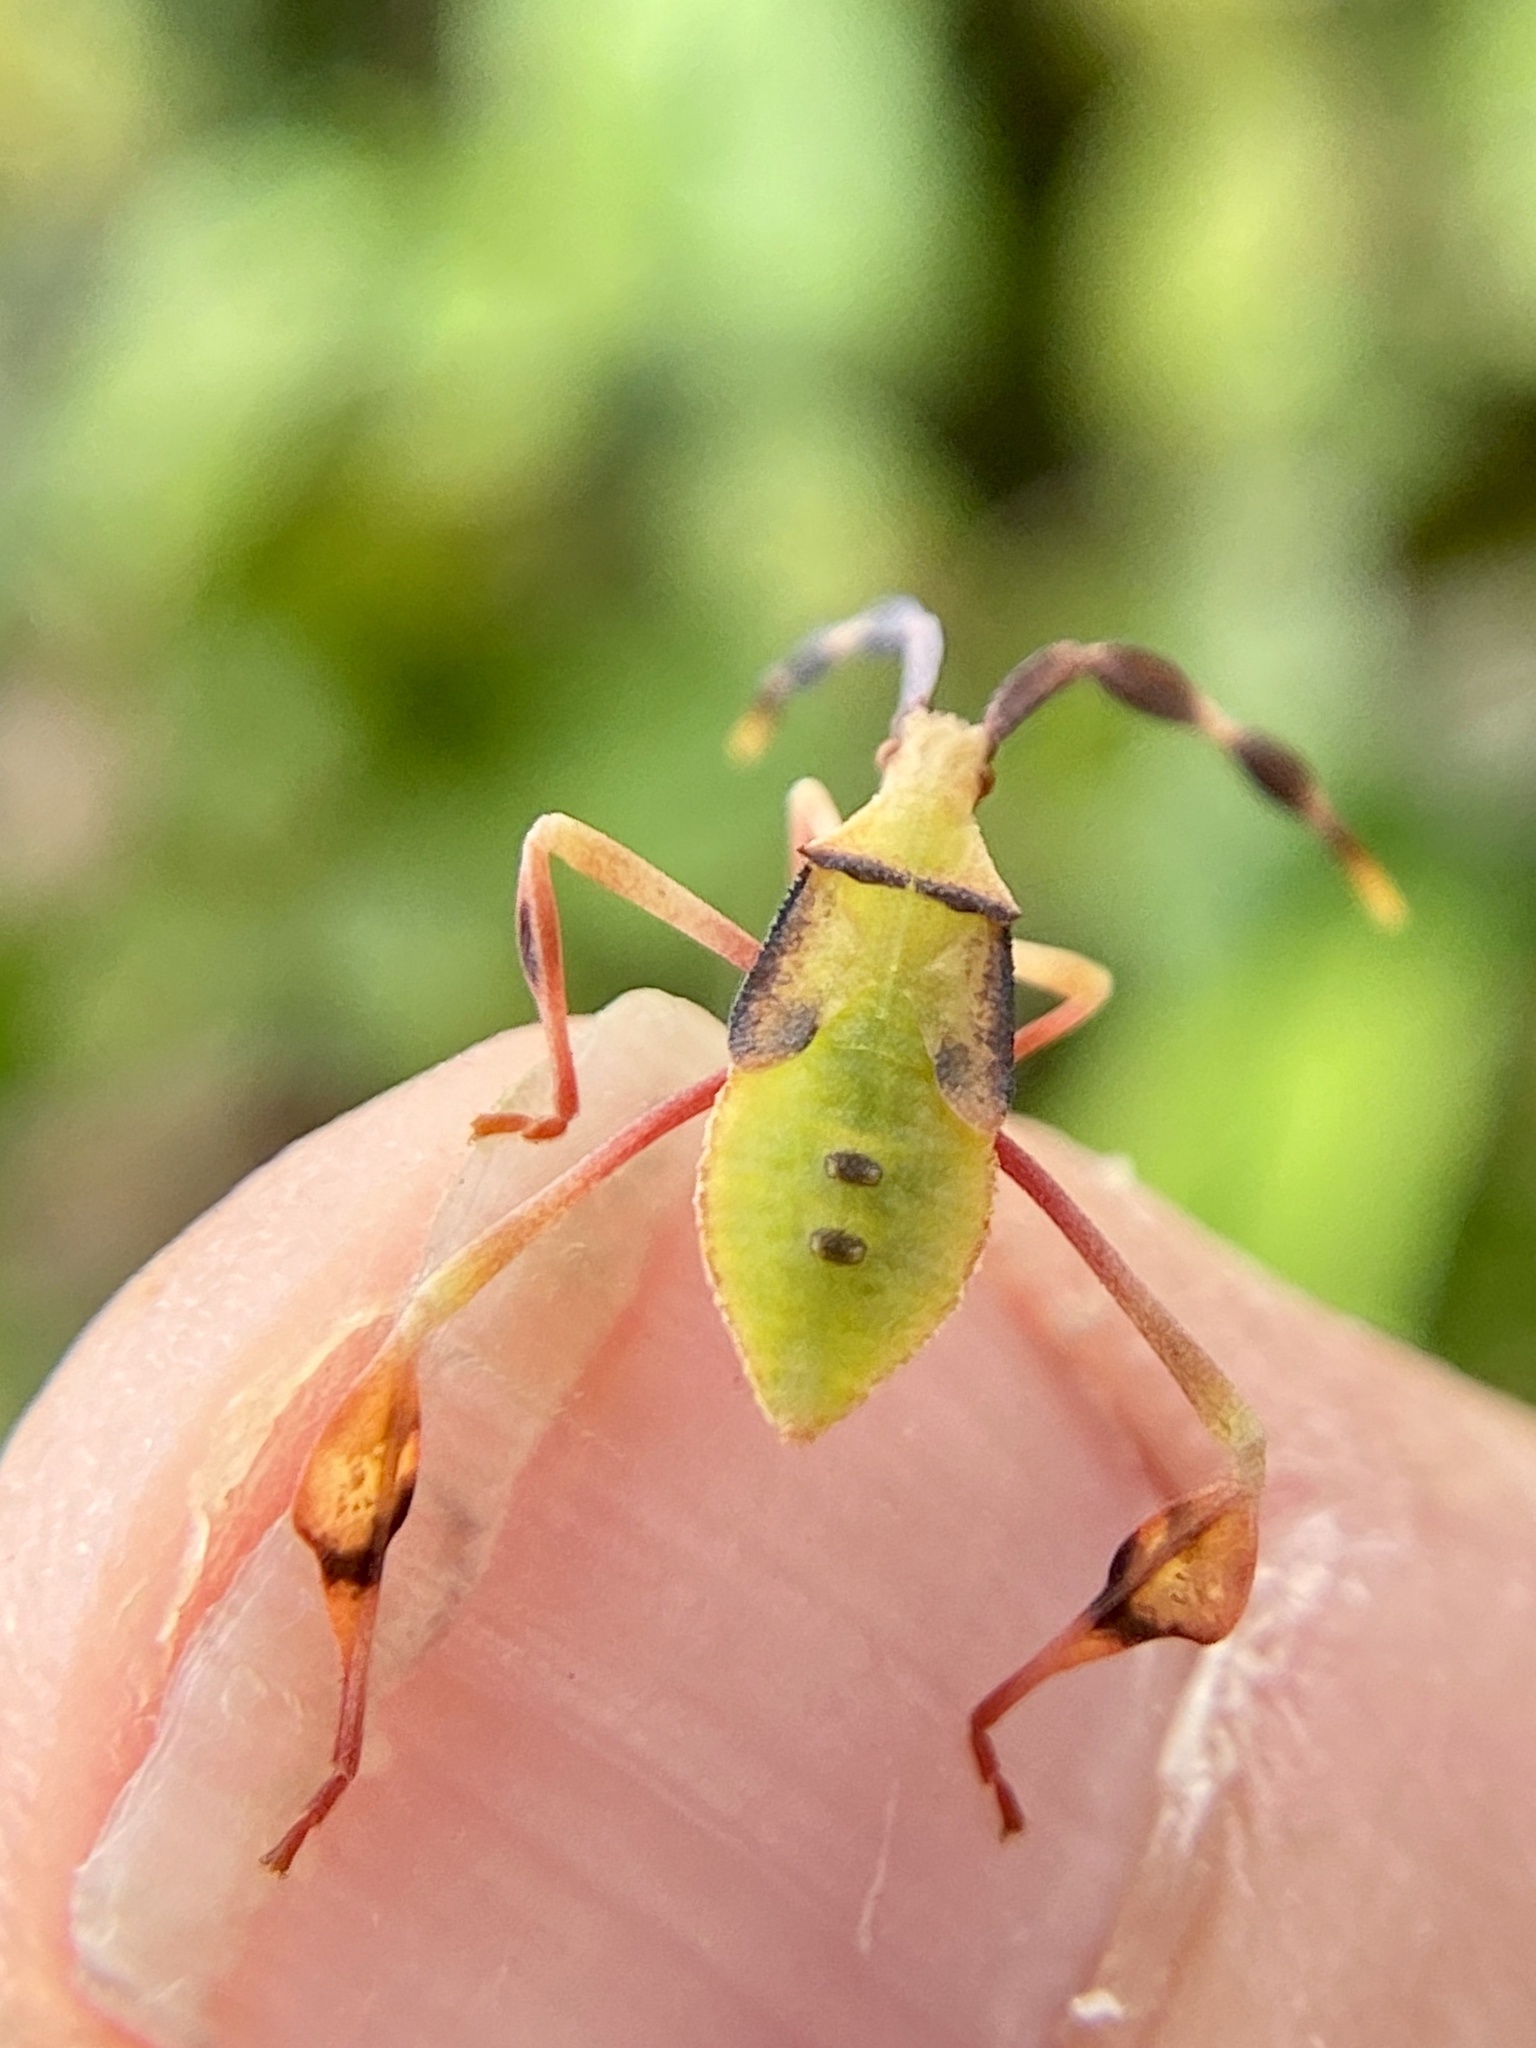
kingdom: Animalia
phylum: Arthropoda
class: Insecta
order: Hemiptera
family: Coreidae
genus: Chondrocera
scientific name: Chondrocera laticornis
